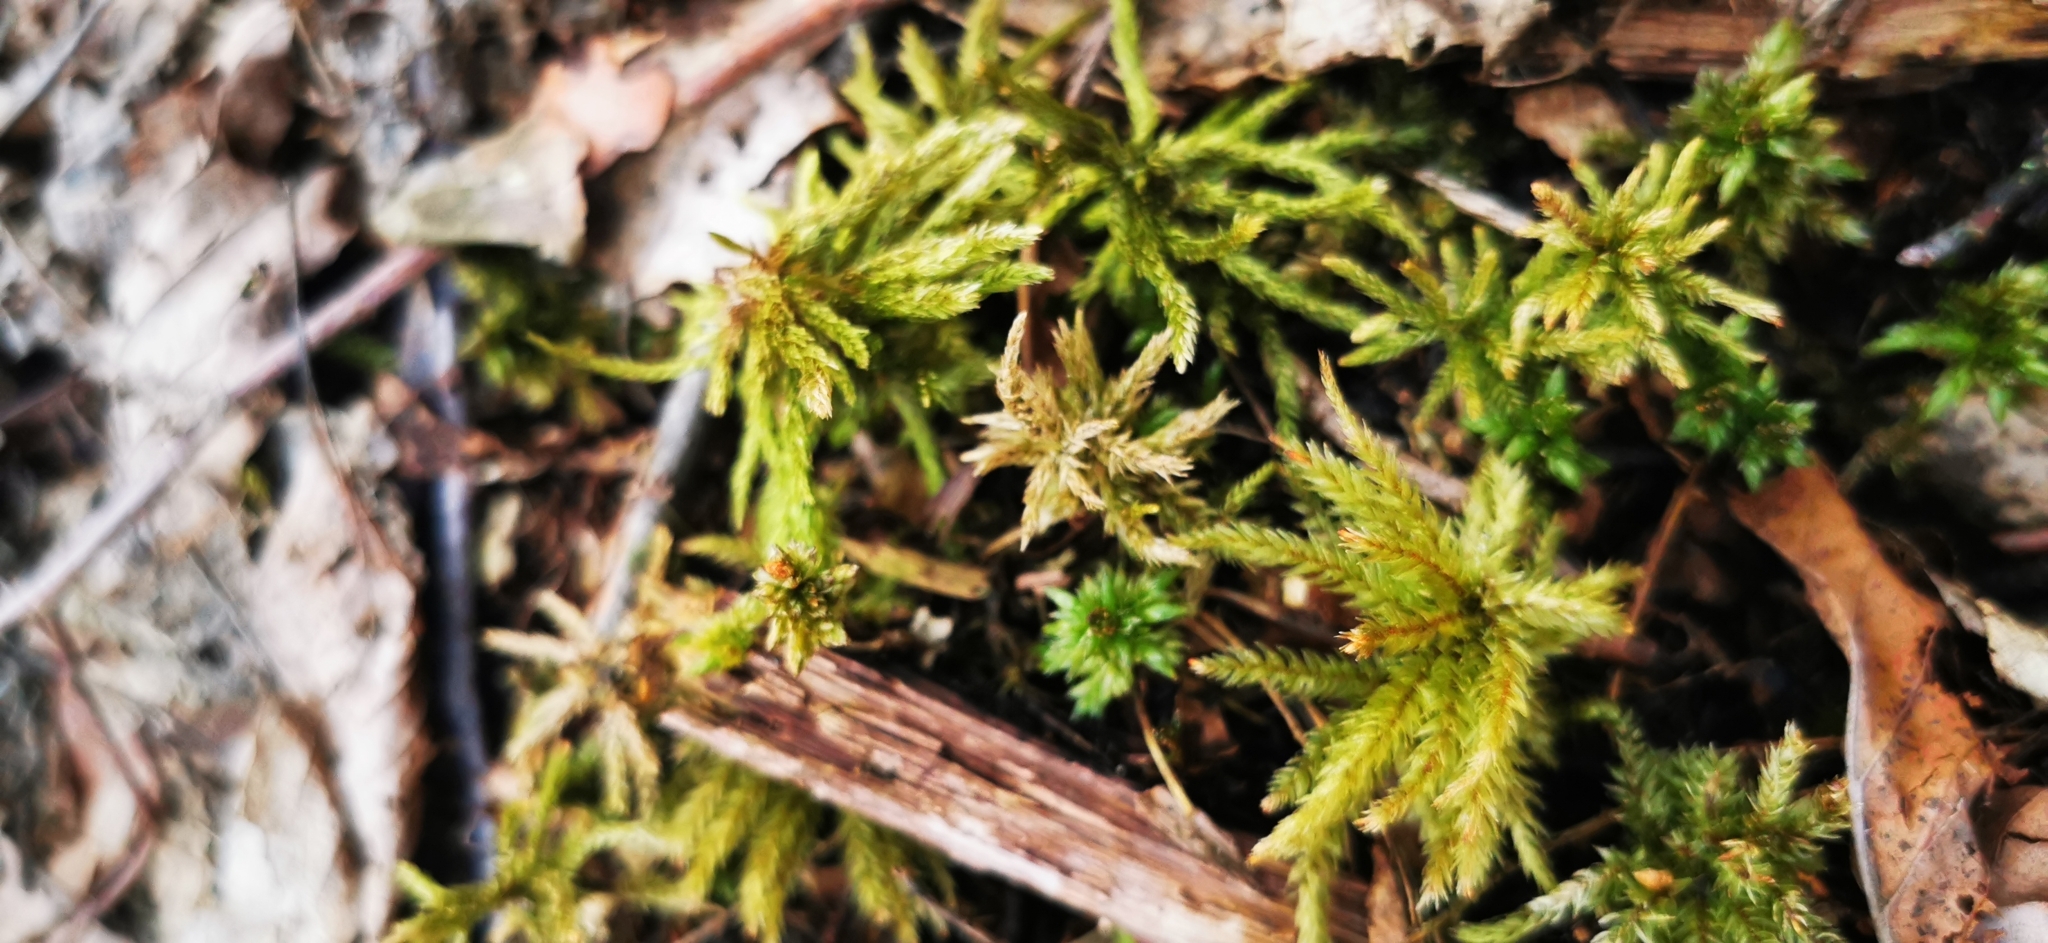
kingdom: Plantae
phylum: Bryophyta
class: Bryopsida
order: Hypnales
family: Climaciaceae
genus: Climacium
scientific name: Climacium dendroides
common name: Northern tree moss
